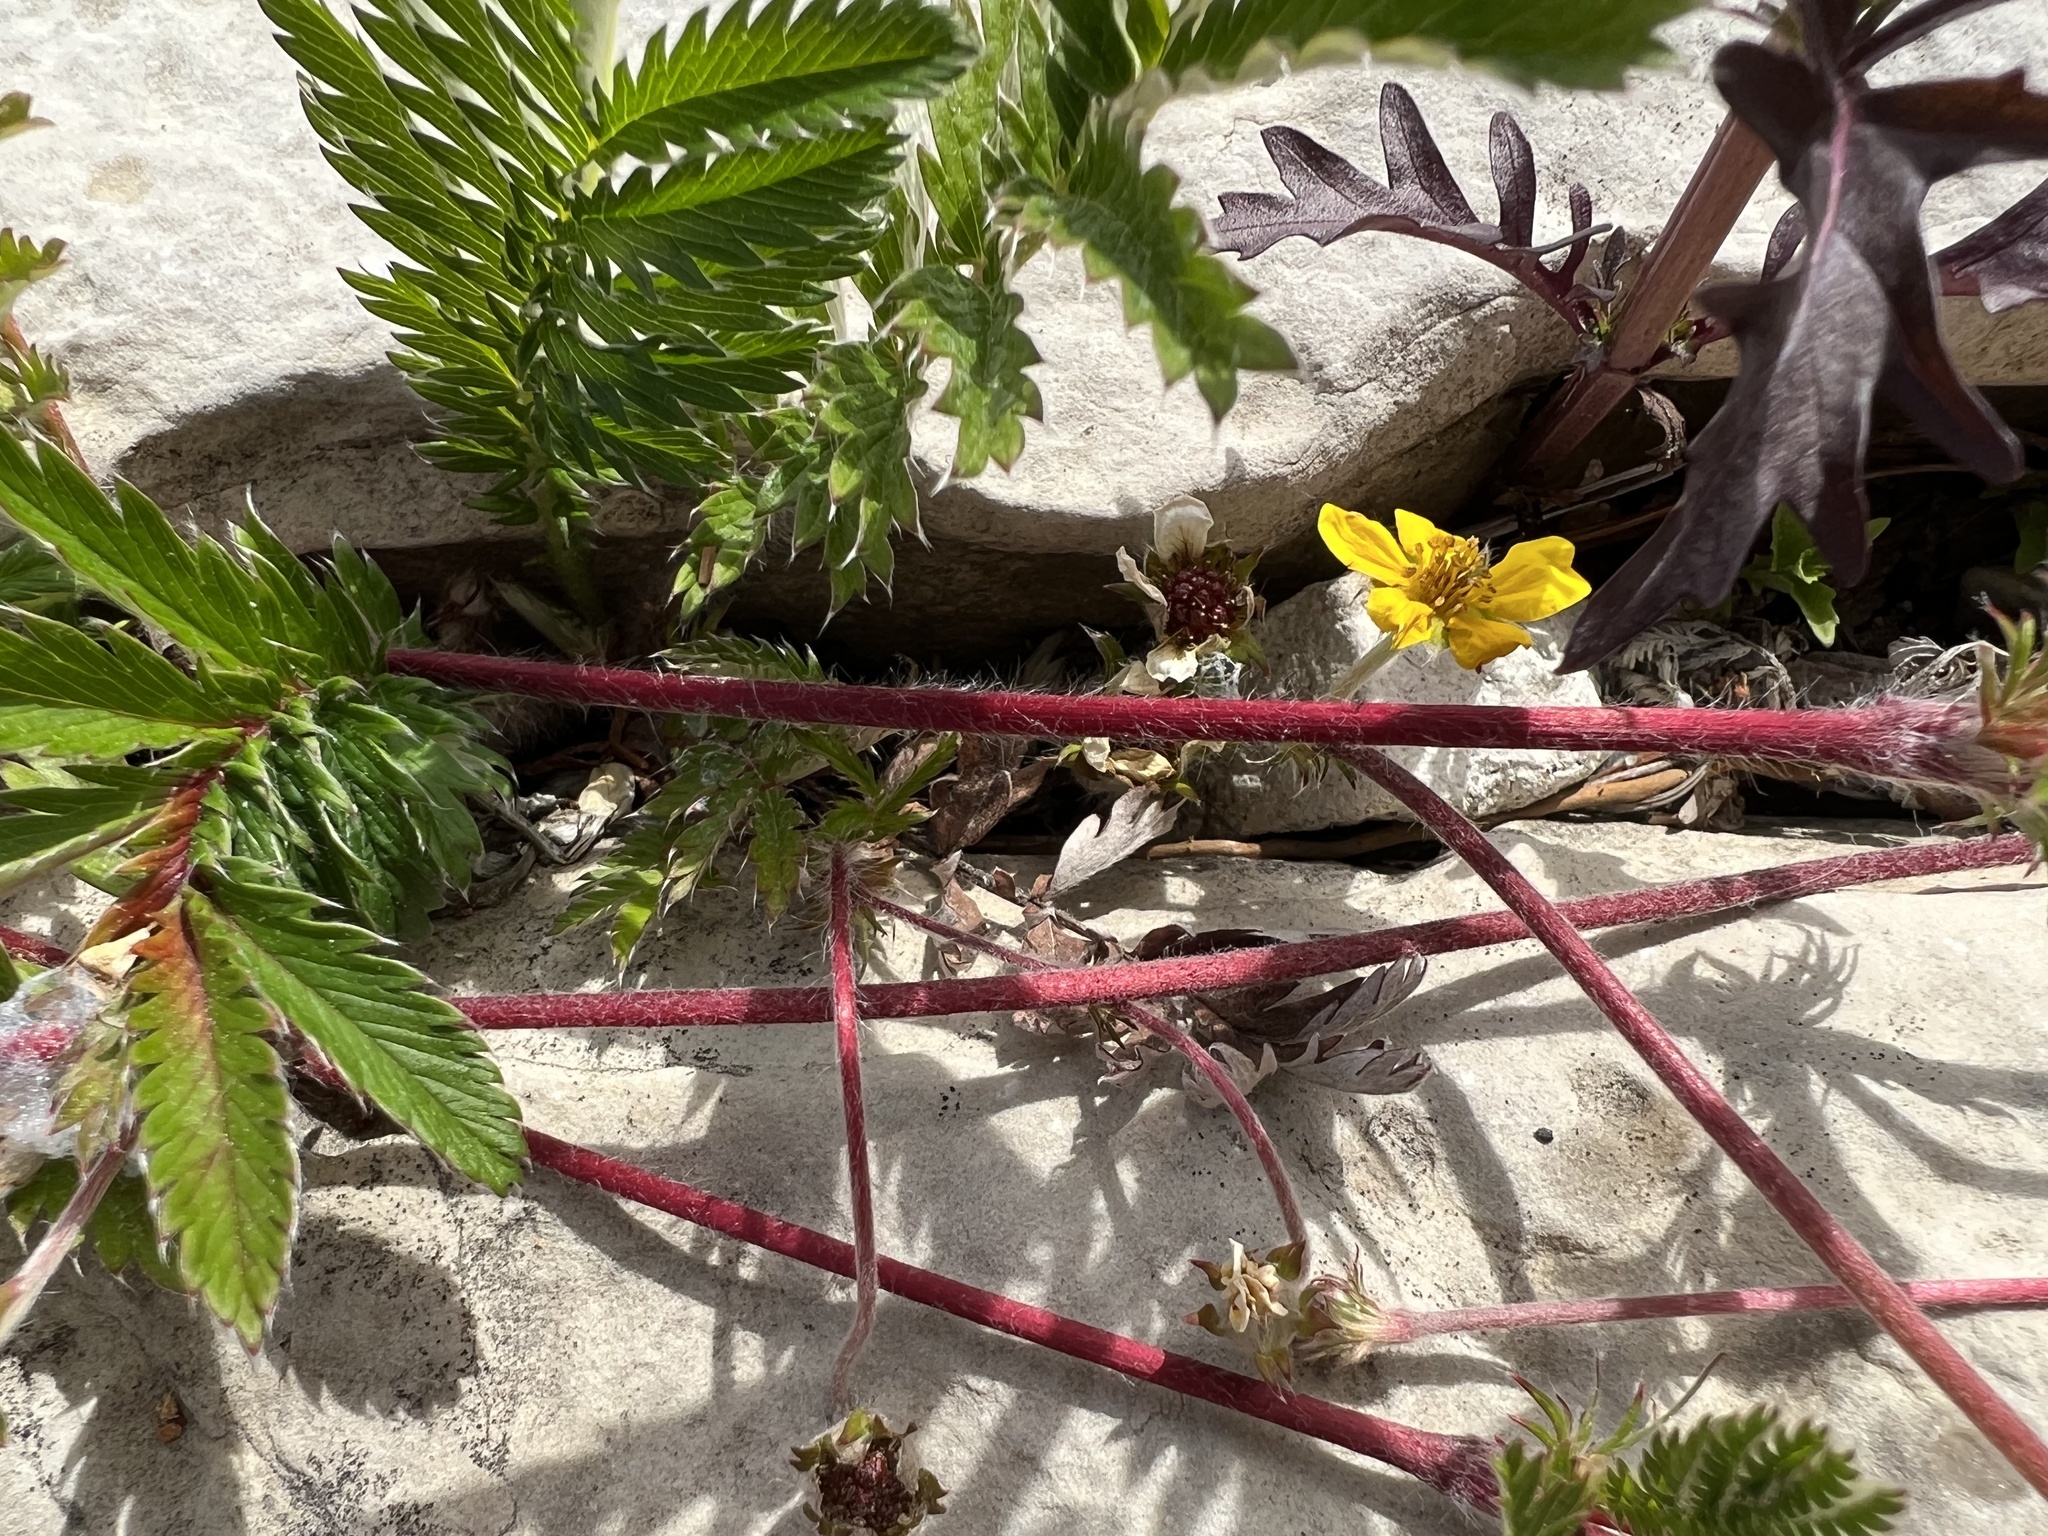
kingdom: Plantae
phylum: Tracheophyta
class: Magnoliopsida
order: Rosales
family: Rosaceae
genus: Argentina
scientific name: Argentina anserina
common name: Common silverweed
